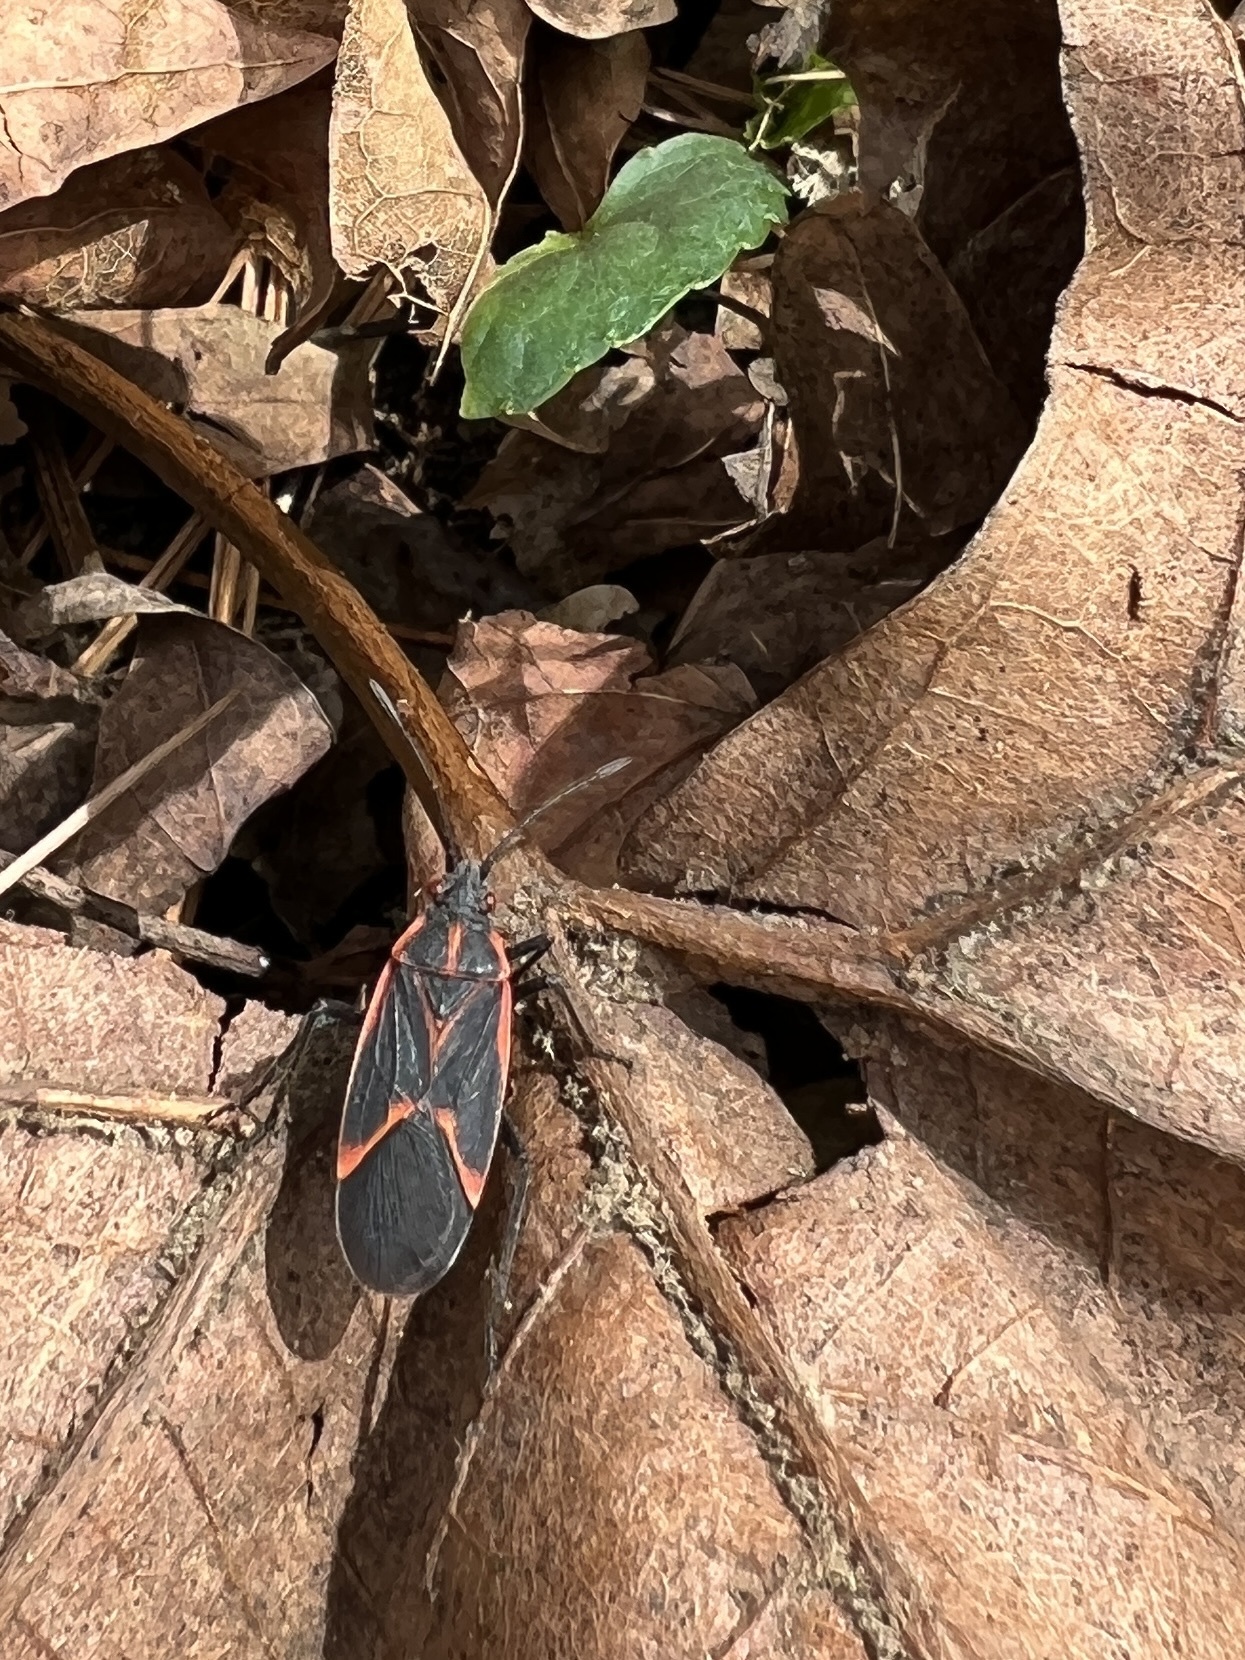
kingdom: Animalia
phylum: Arthropoda
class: Insecta
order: Hemiptera
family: Rhopalidae
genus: Boisea
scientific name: Boisea trivittata
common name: Boxelder bug
